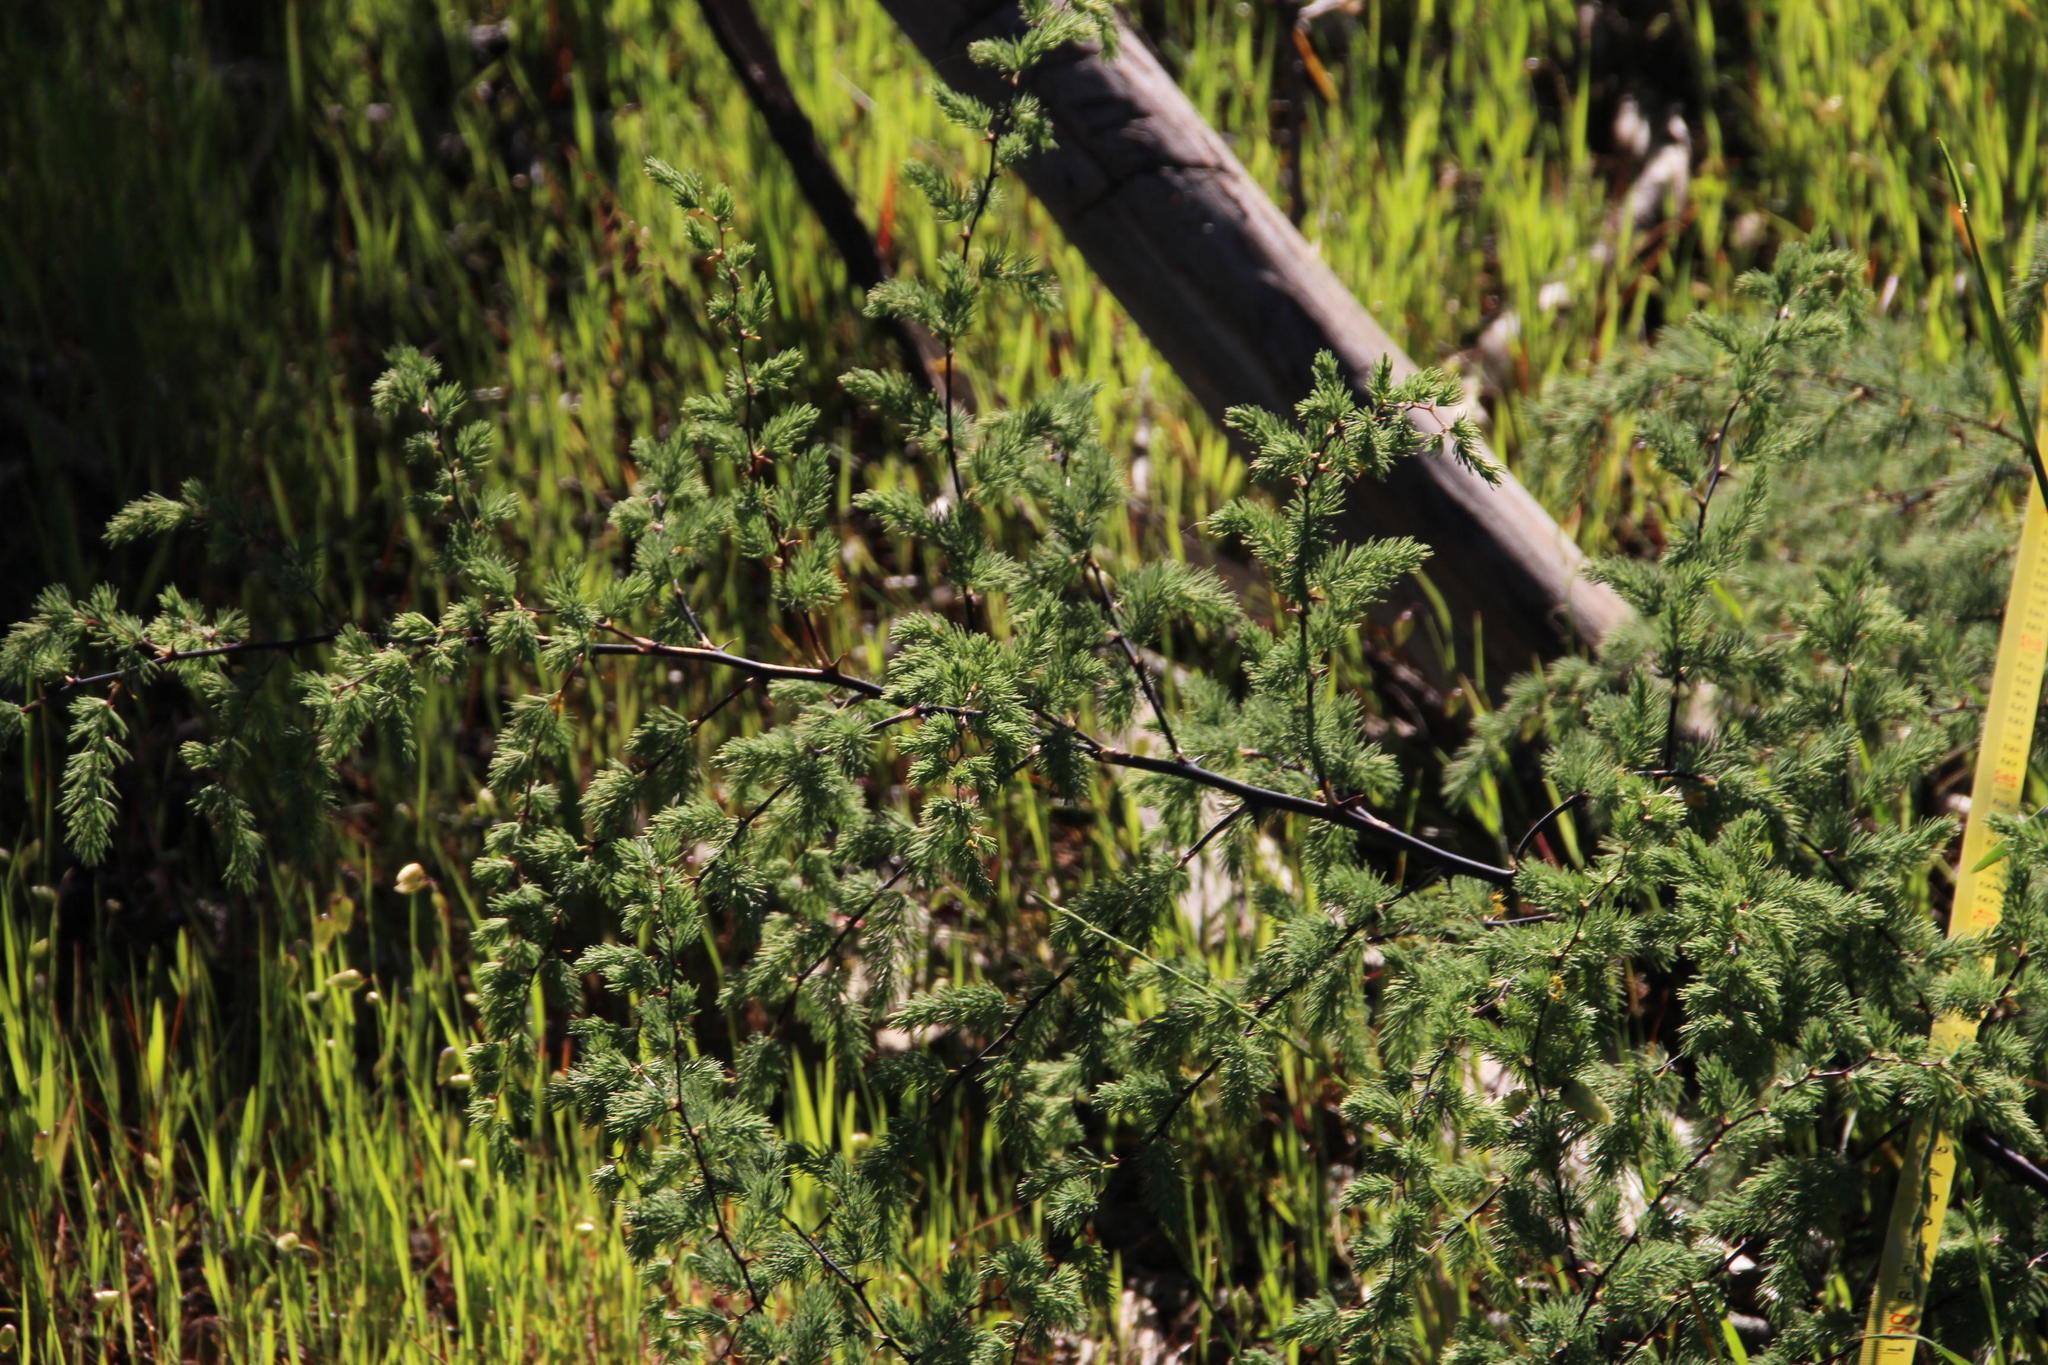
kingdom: Plantae
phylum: Tracheophyta
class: Liliopsida
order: Asparagales
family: Asparagaceae
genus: Asparagus
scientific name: Asparagus rubicundus
